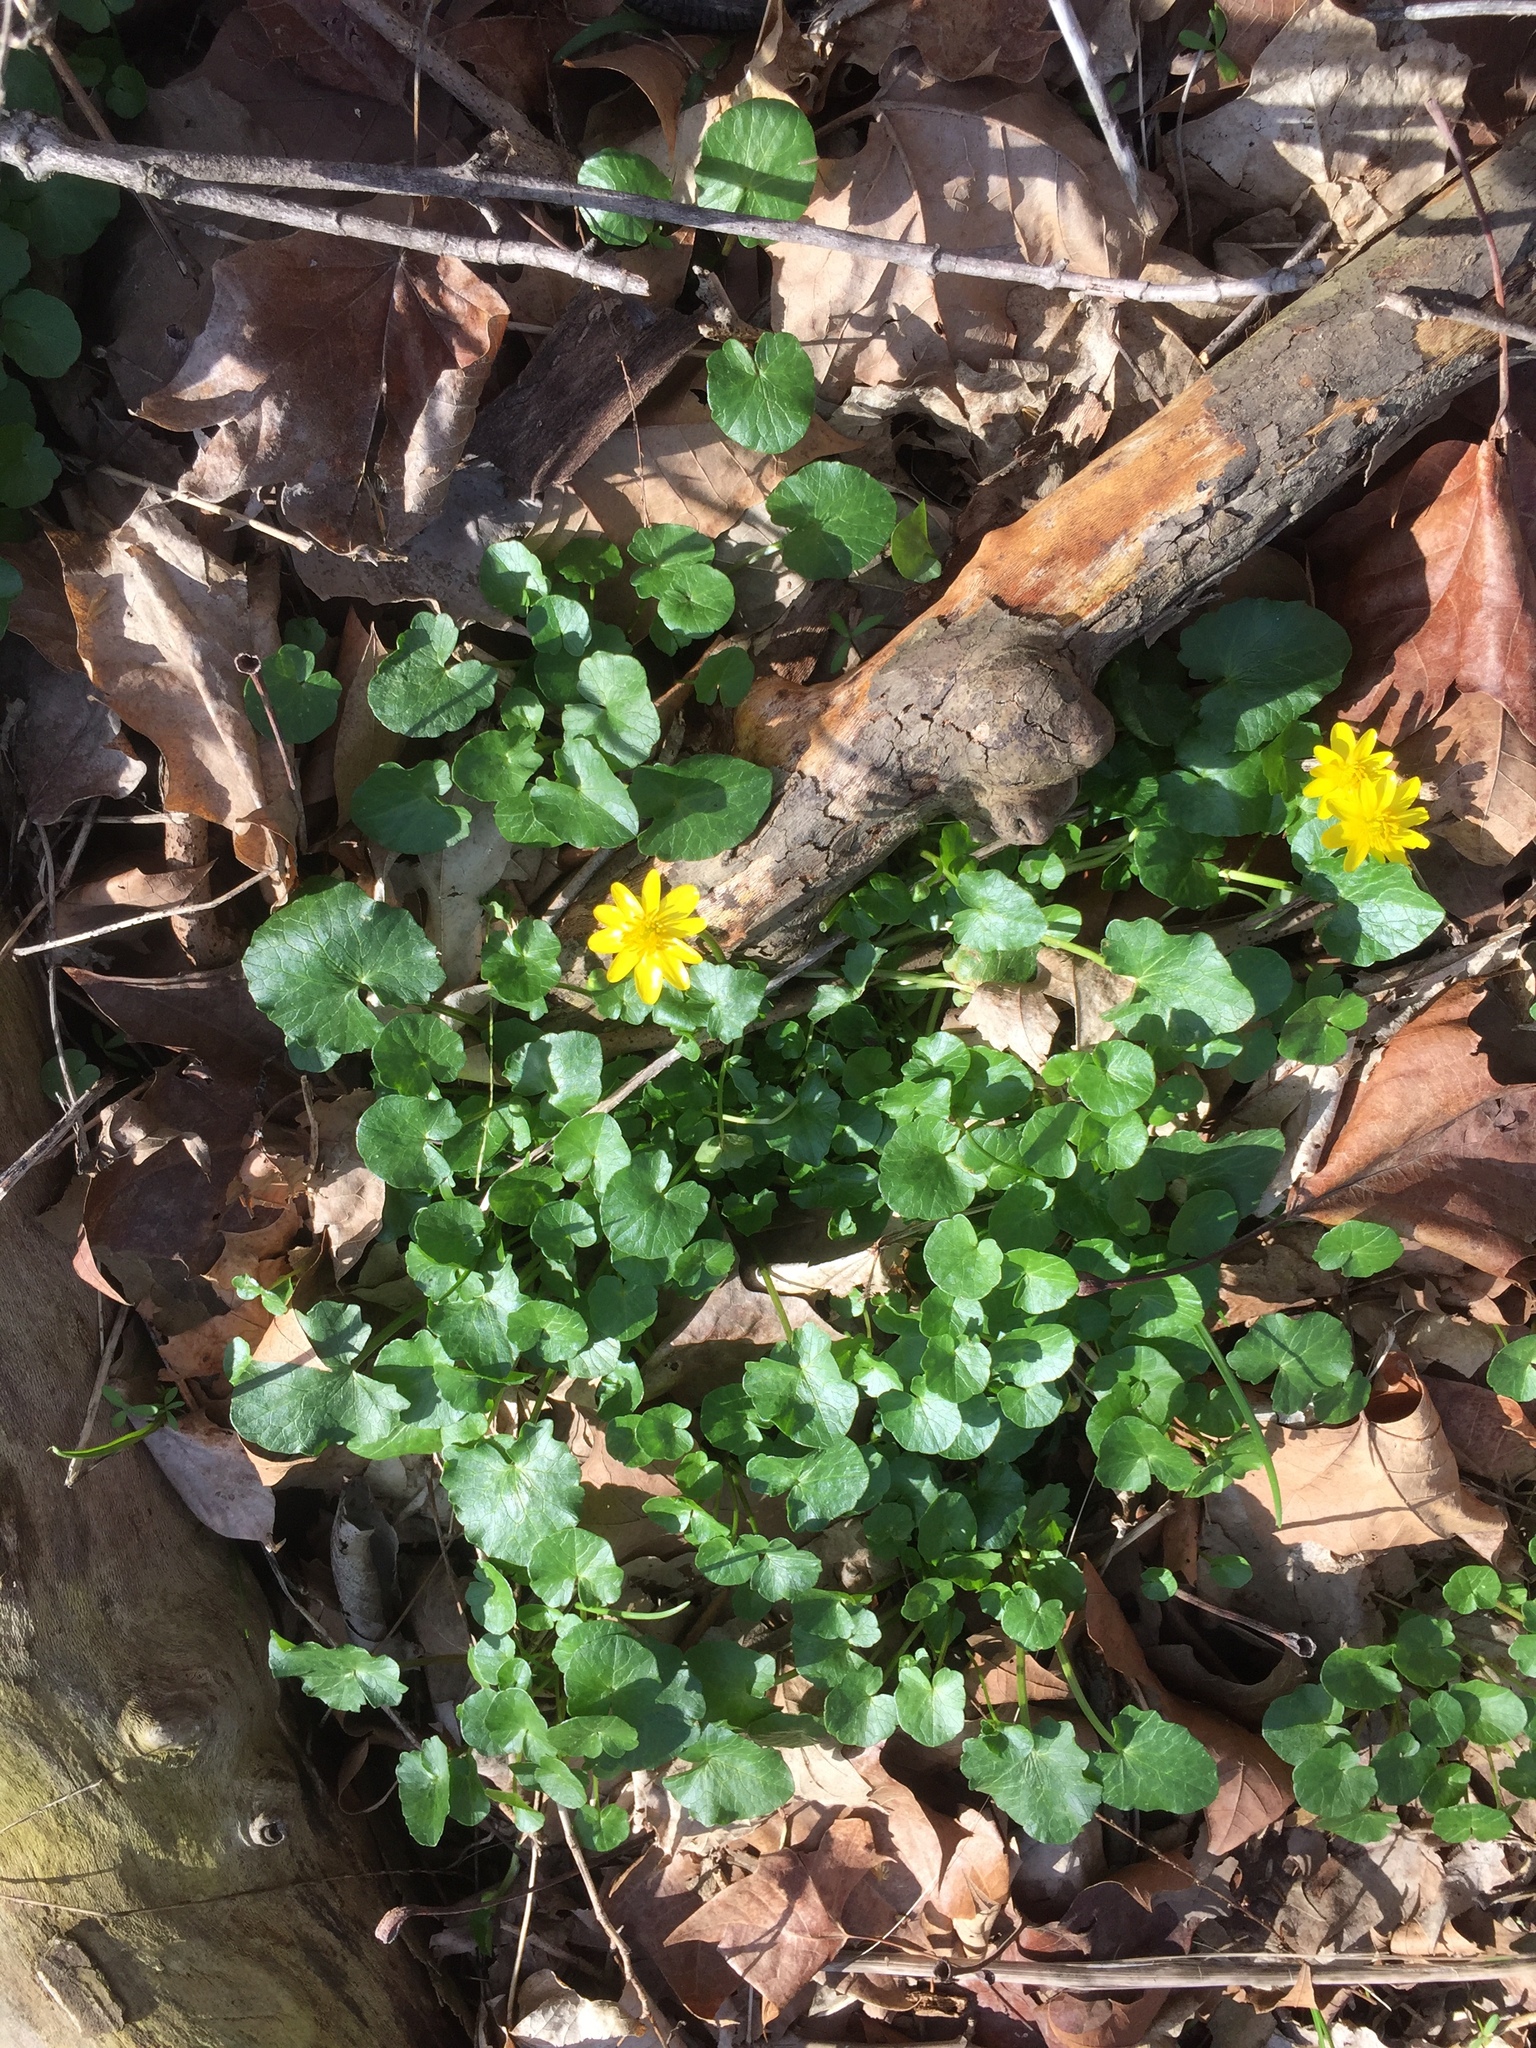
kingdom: Plantae
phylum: Tracheophyta
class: Magnoliopsida
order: Ranunculales
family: Ranunculaceae
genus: Ficaria
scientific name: Ficaria verna
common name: Lesser celandine
